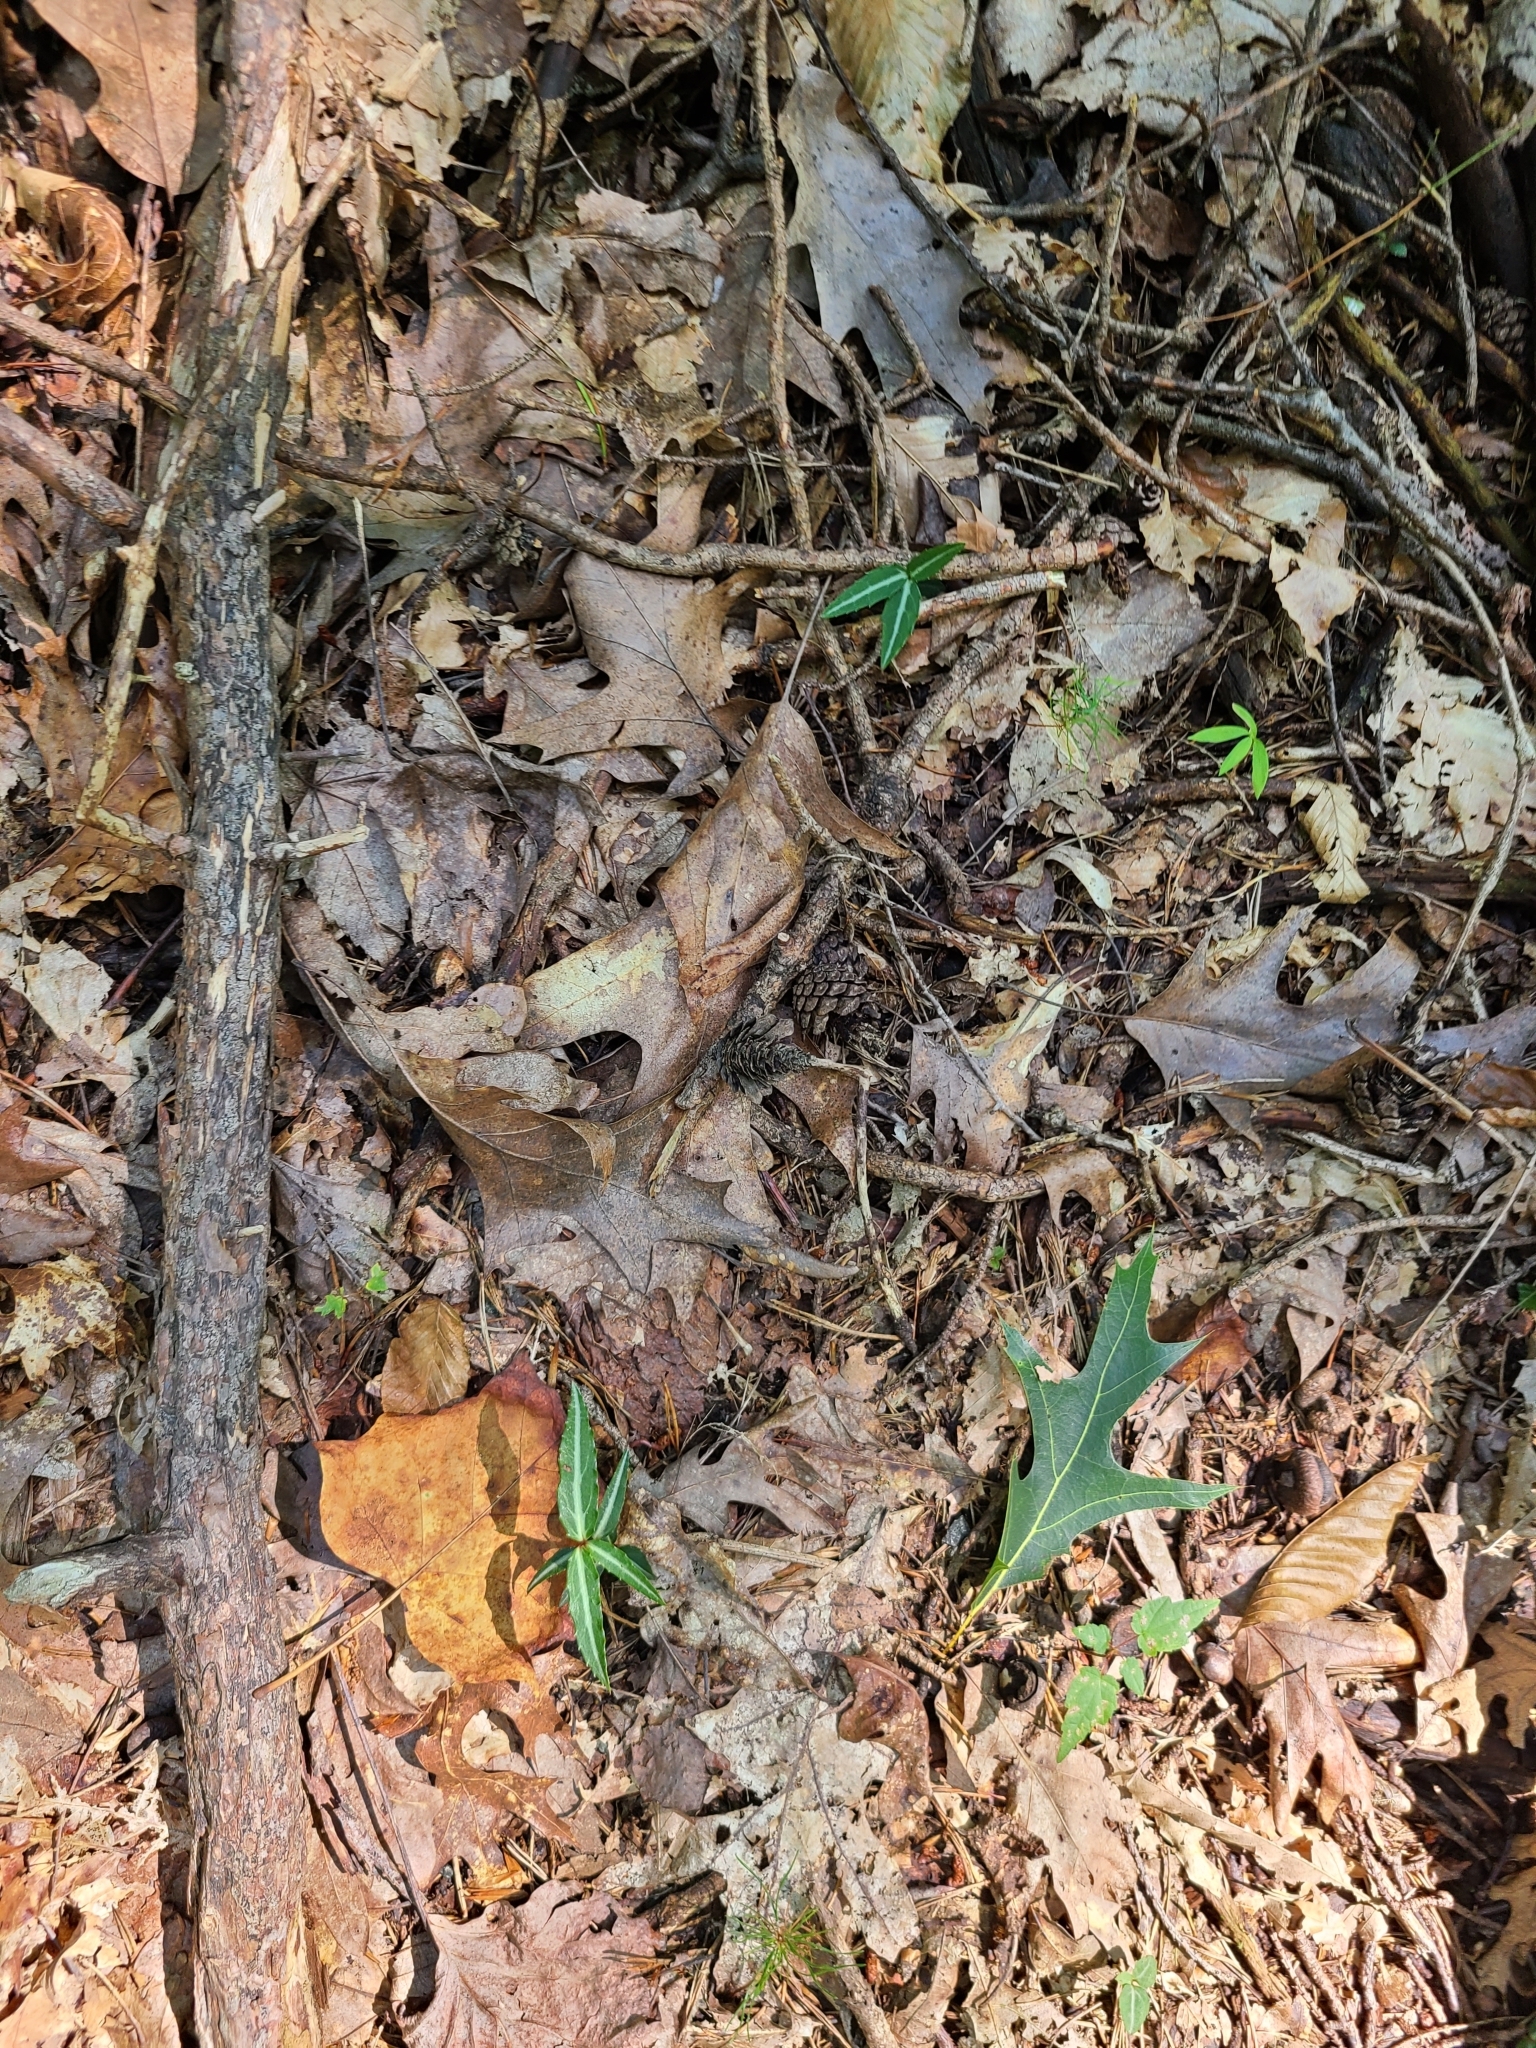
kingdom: Plantae
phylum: Tracheophyta
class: Magnoliopsida
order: Ericales
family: Ericaceae
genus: Chimaphila
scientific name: Chimaphila maculata
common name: Spotted pipsissewa
